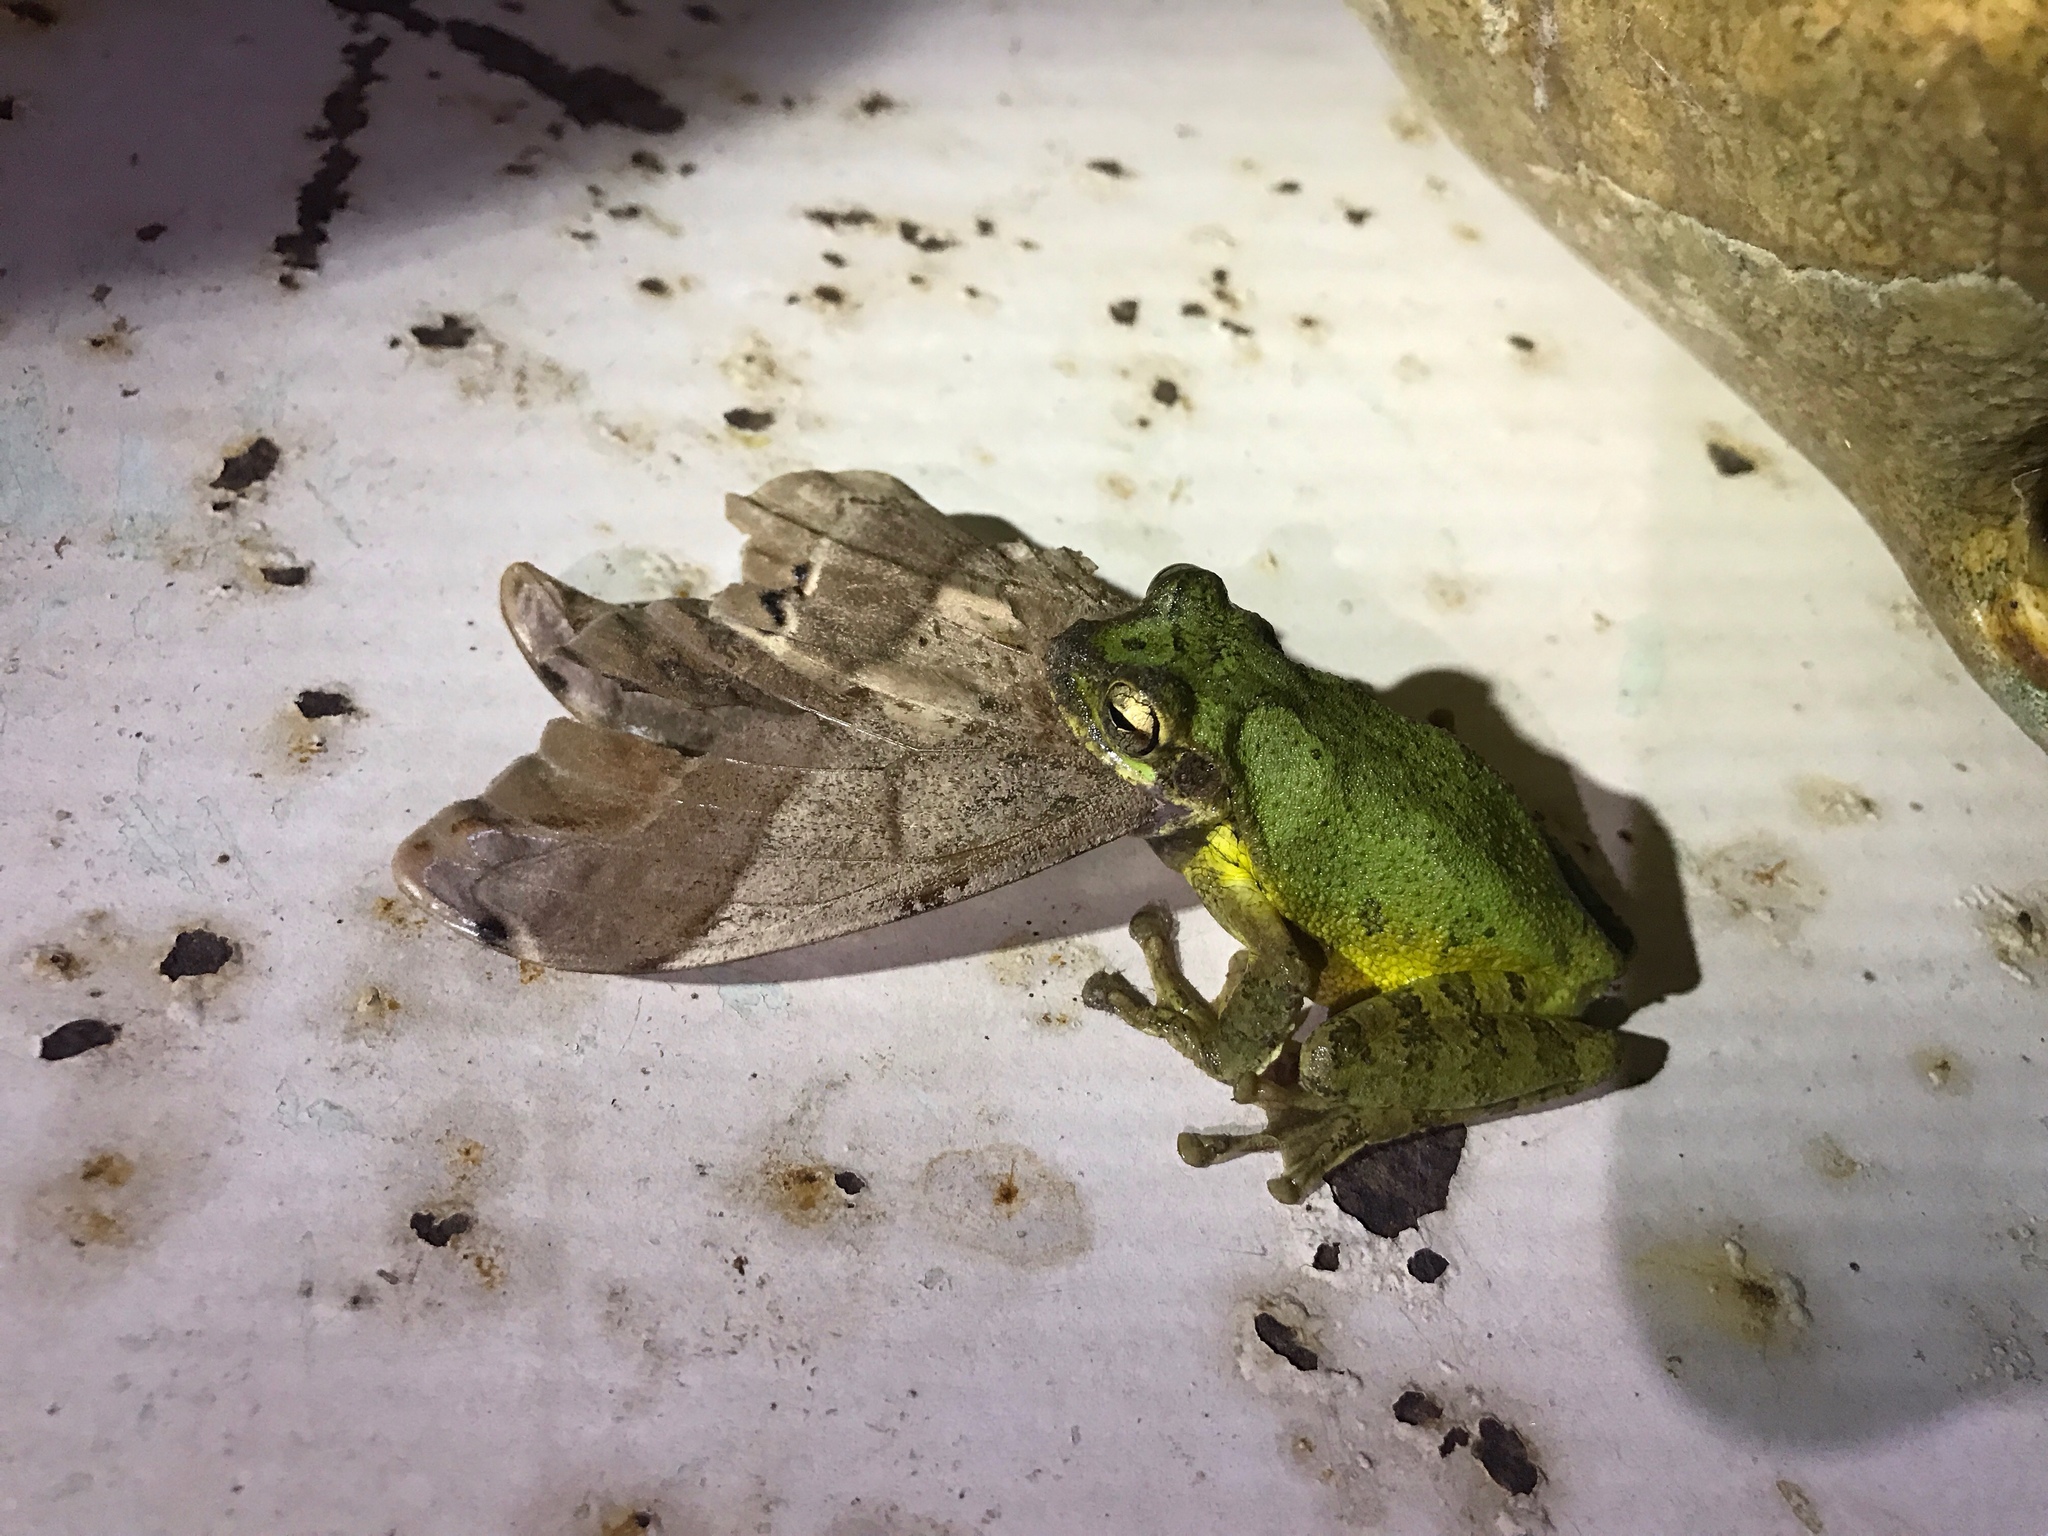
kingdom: Animalia
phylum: Chordata
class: Amphibia
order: Anura
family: Hylidae
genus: Smilisca
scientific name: Smilisca baudinii
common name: Mexican smilisca
